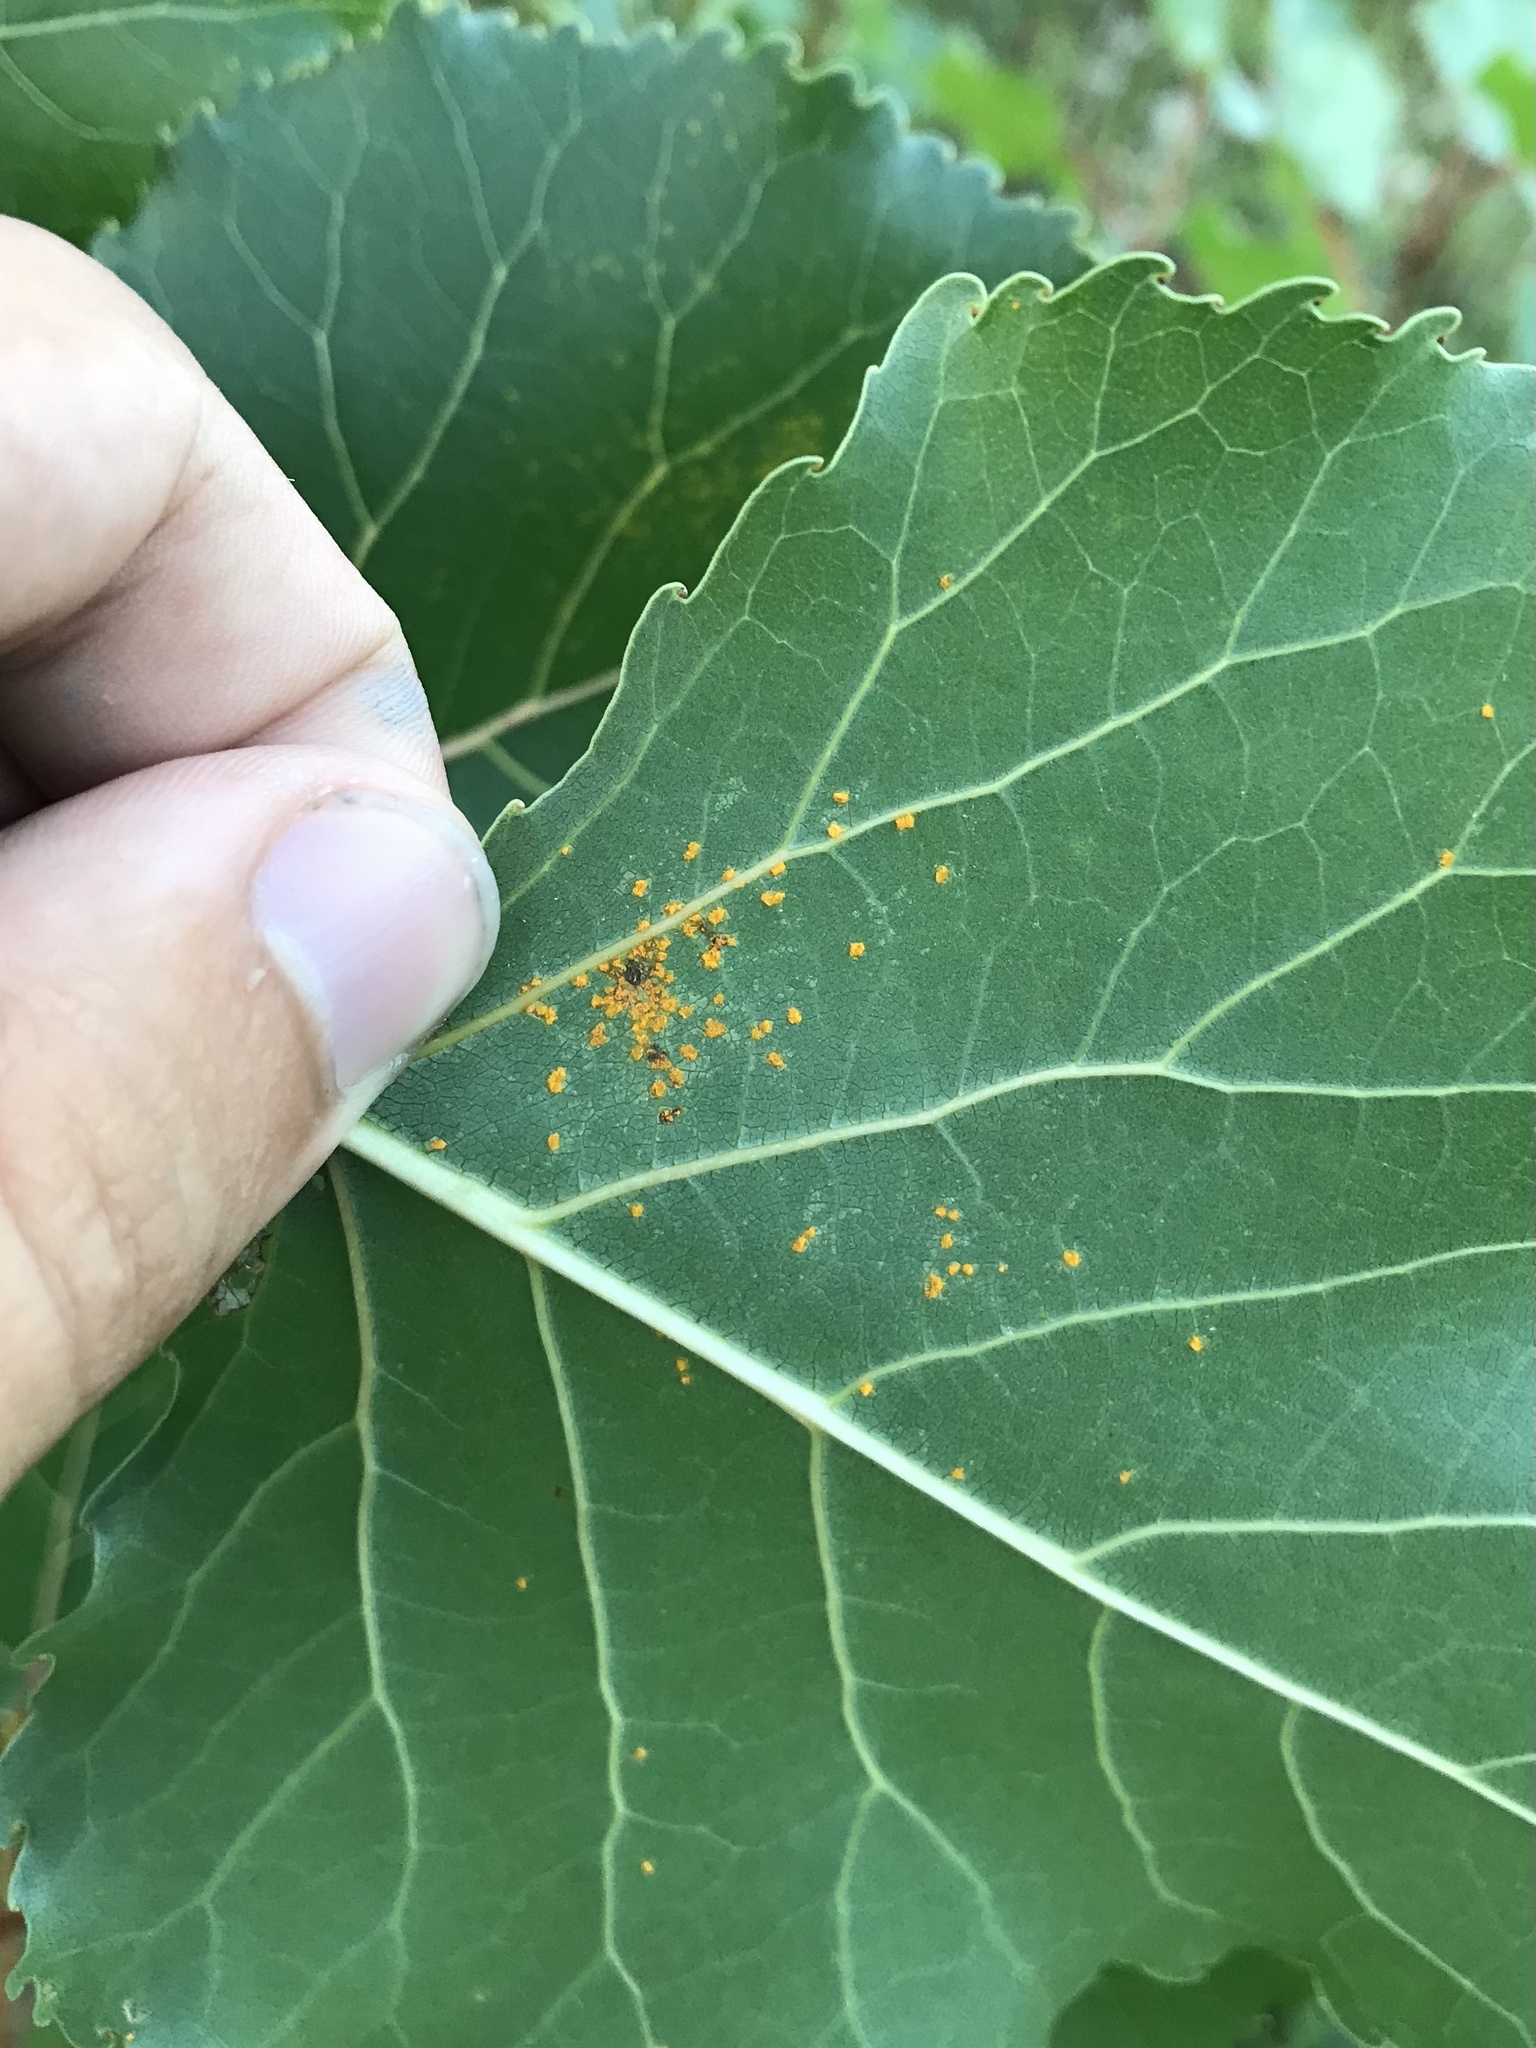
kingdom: Fungi
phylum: Basidiomycota
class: Pucciniomycetes
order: Pucciniales
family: Melampsoraceae
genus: Melampsora
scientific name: Melampsora medusae
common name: Poplar rust
